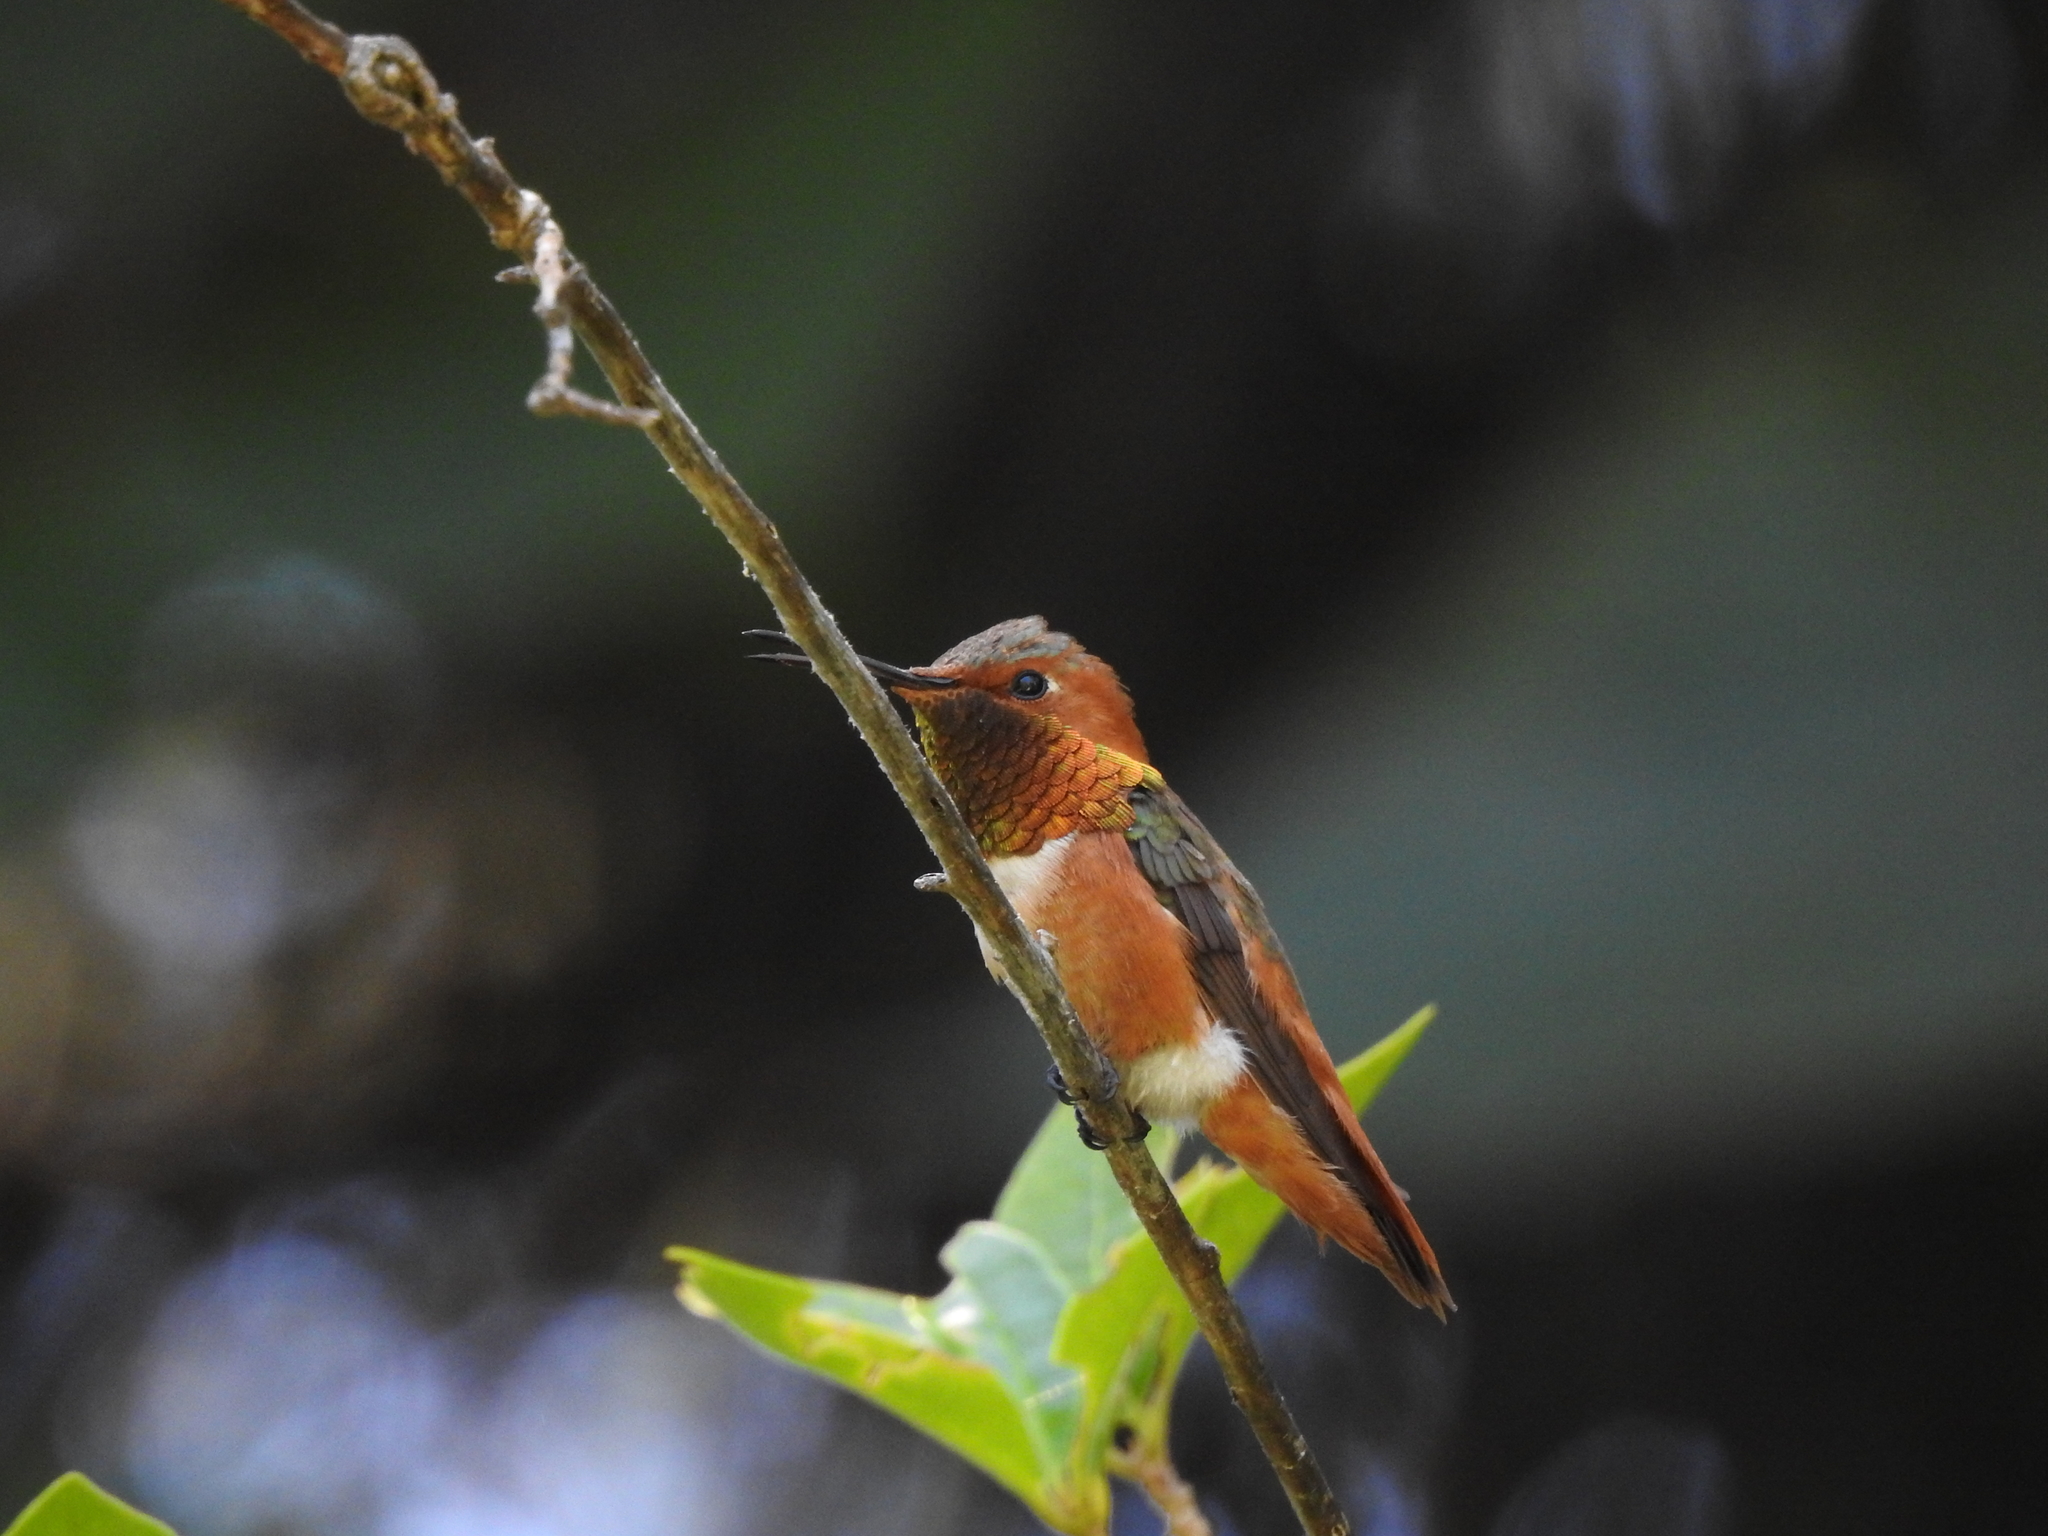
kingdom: Animalia
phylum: Chordata
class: Aves
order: Apodiformes
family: Trochilidae
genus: Selasphorus
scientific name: Selasphorus sasin
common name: Allen's hummingbird
